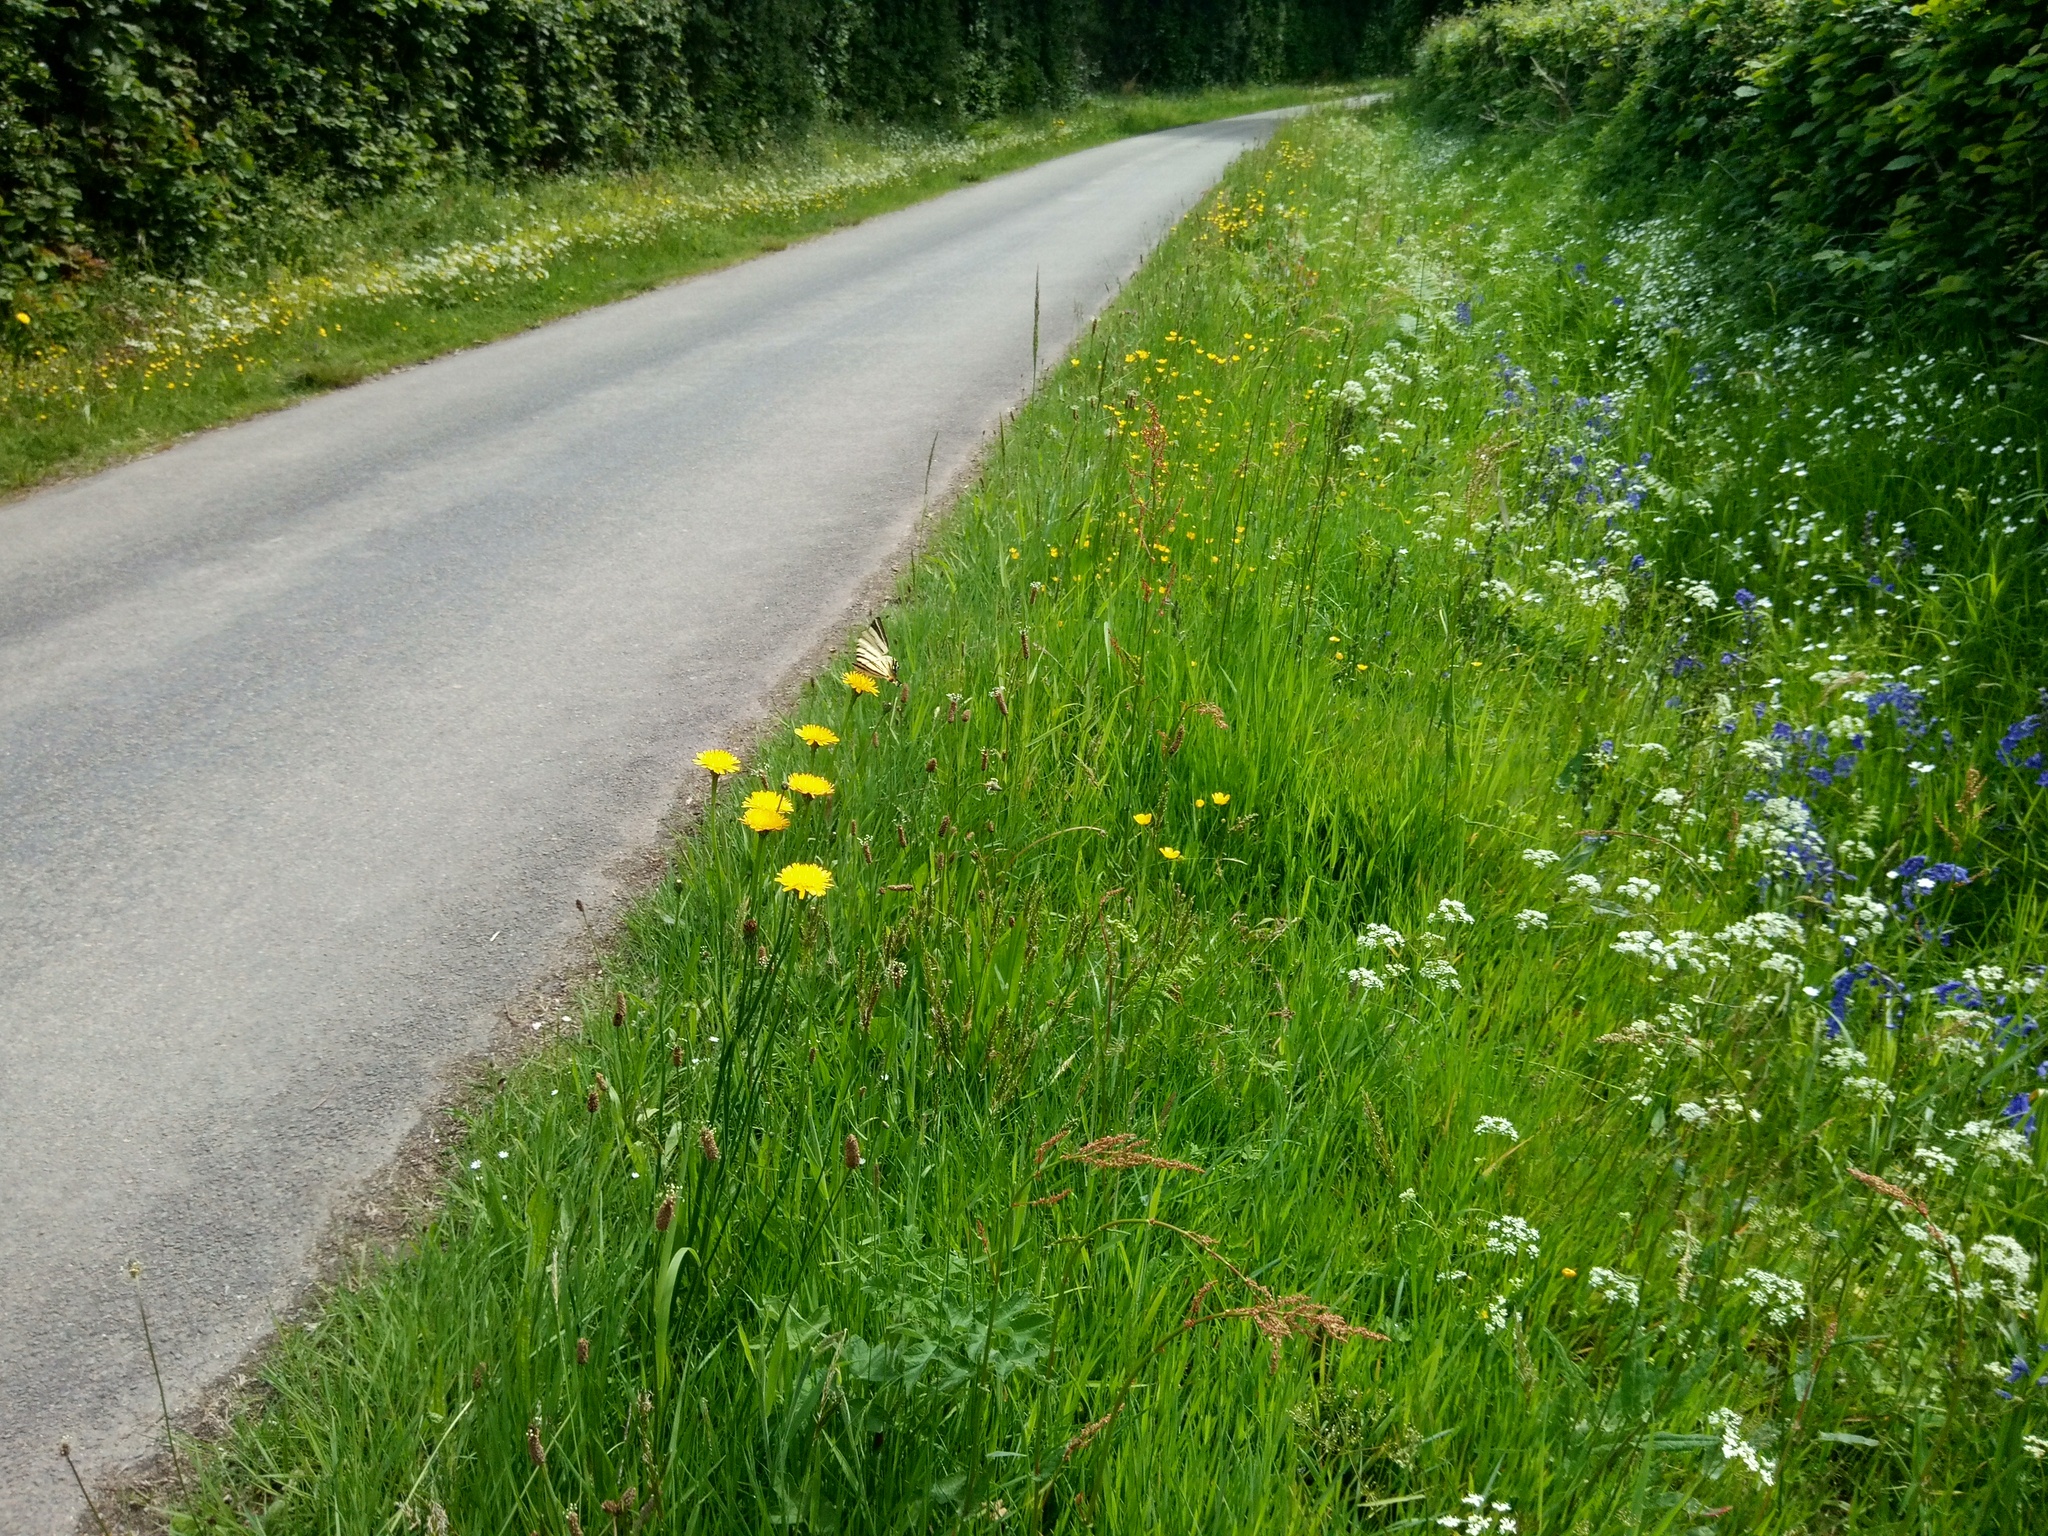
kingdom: Animalia
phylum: Arthropoda
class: Insecta
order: Lepidoptera
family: Papilionidae
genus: Iphiclides
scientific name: Iphiclides podalirius
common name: Scarce swallowtail
